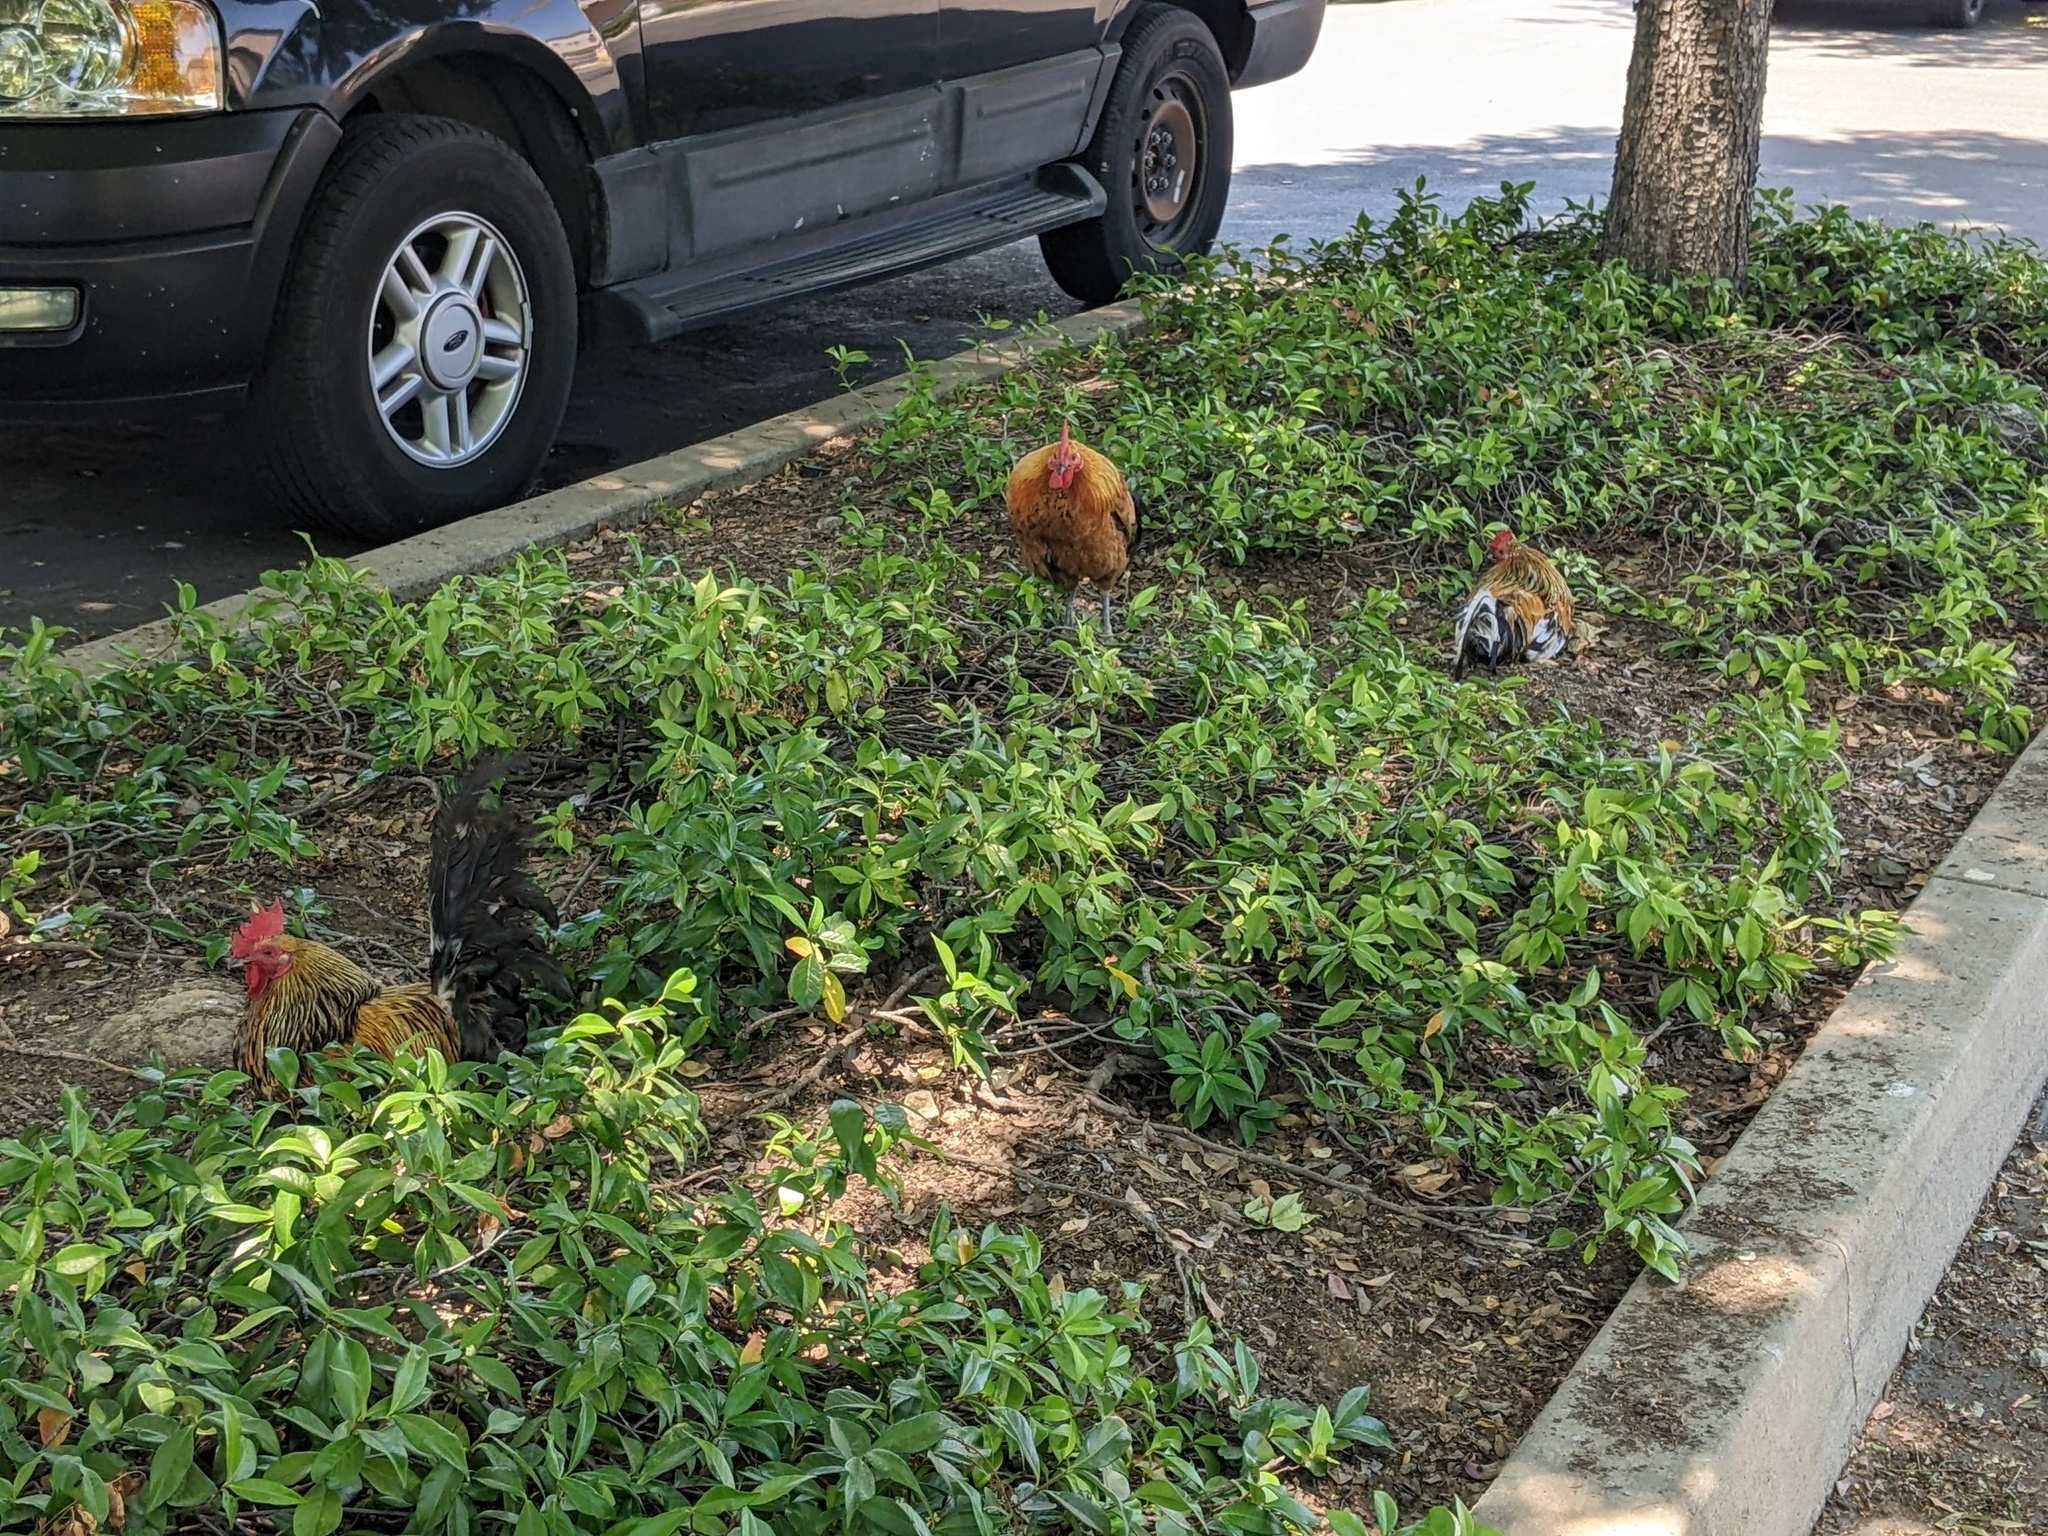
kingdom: Animalia
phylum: Chordata
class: Aves
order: Galliformes
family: Phasianidae
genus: Gallus
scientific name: Gallus gallus
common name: Red junglefowl
